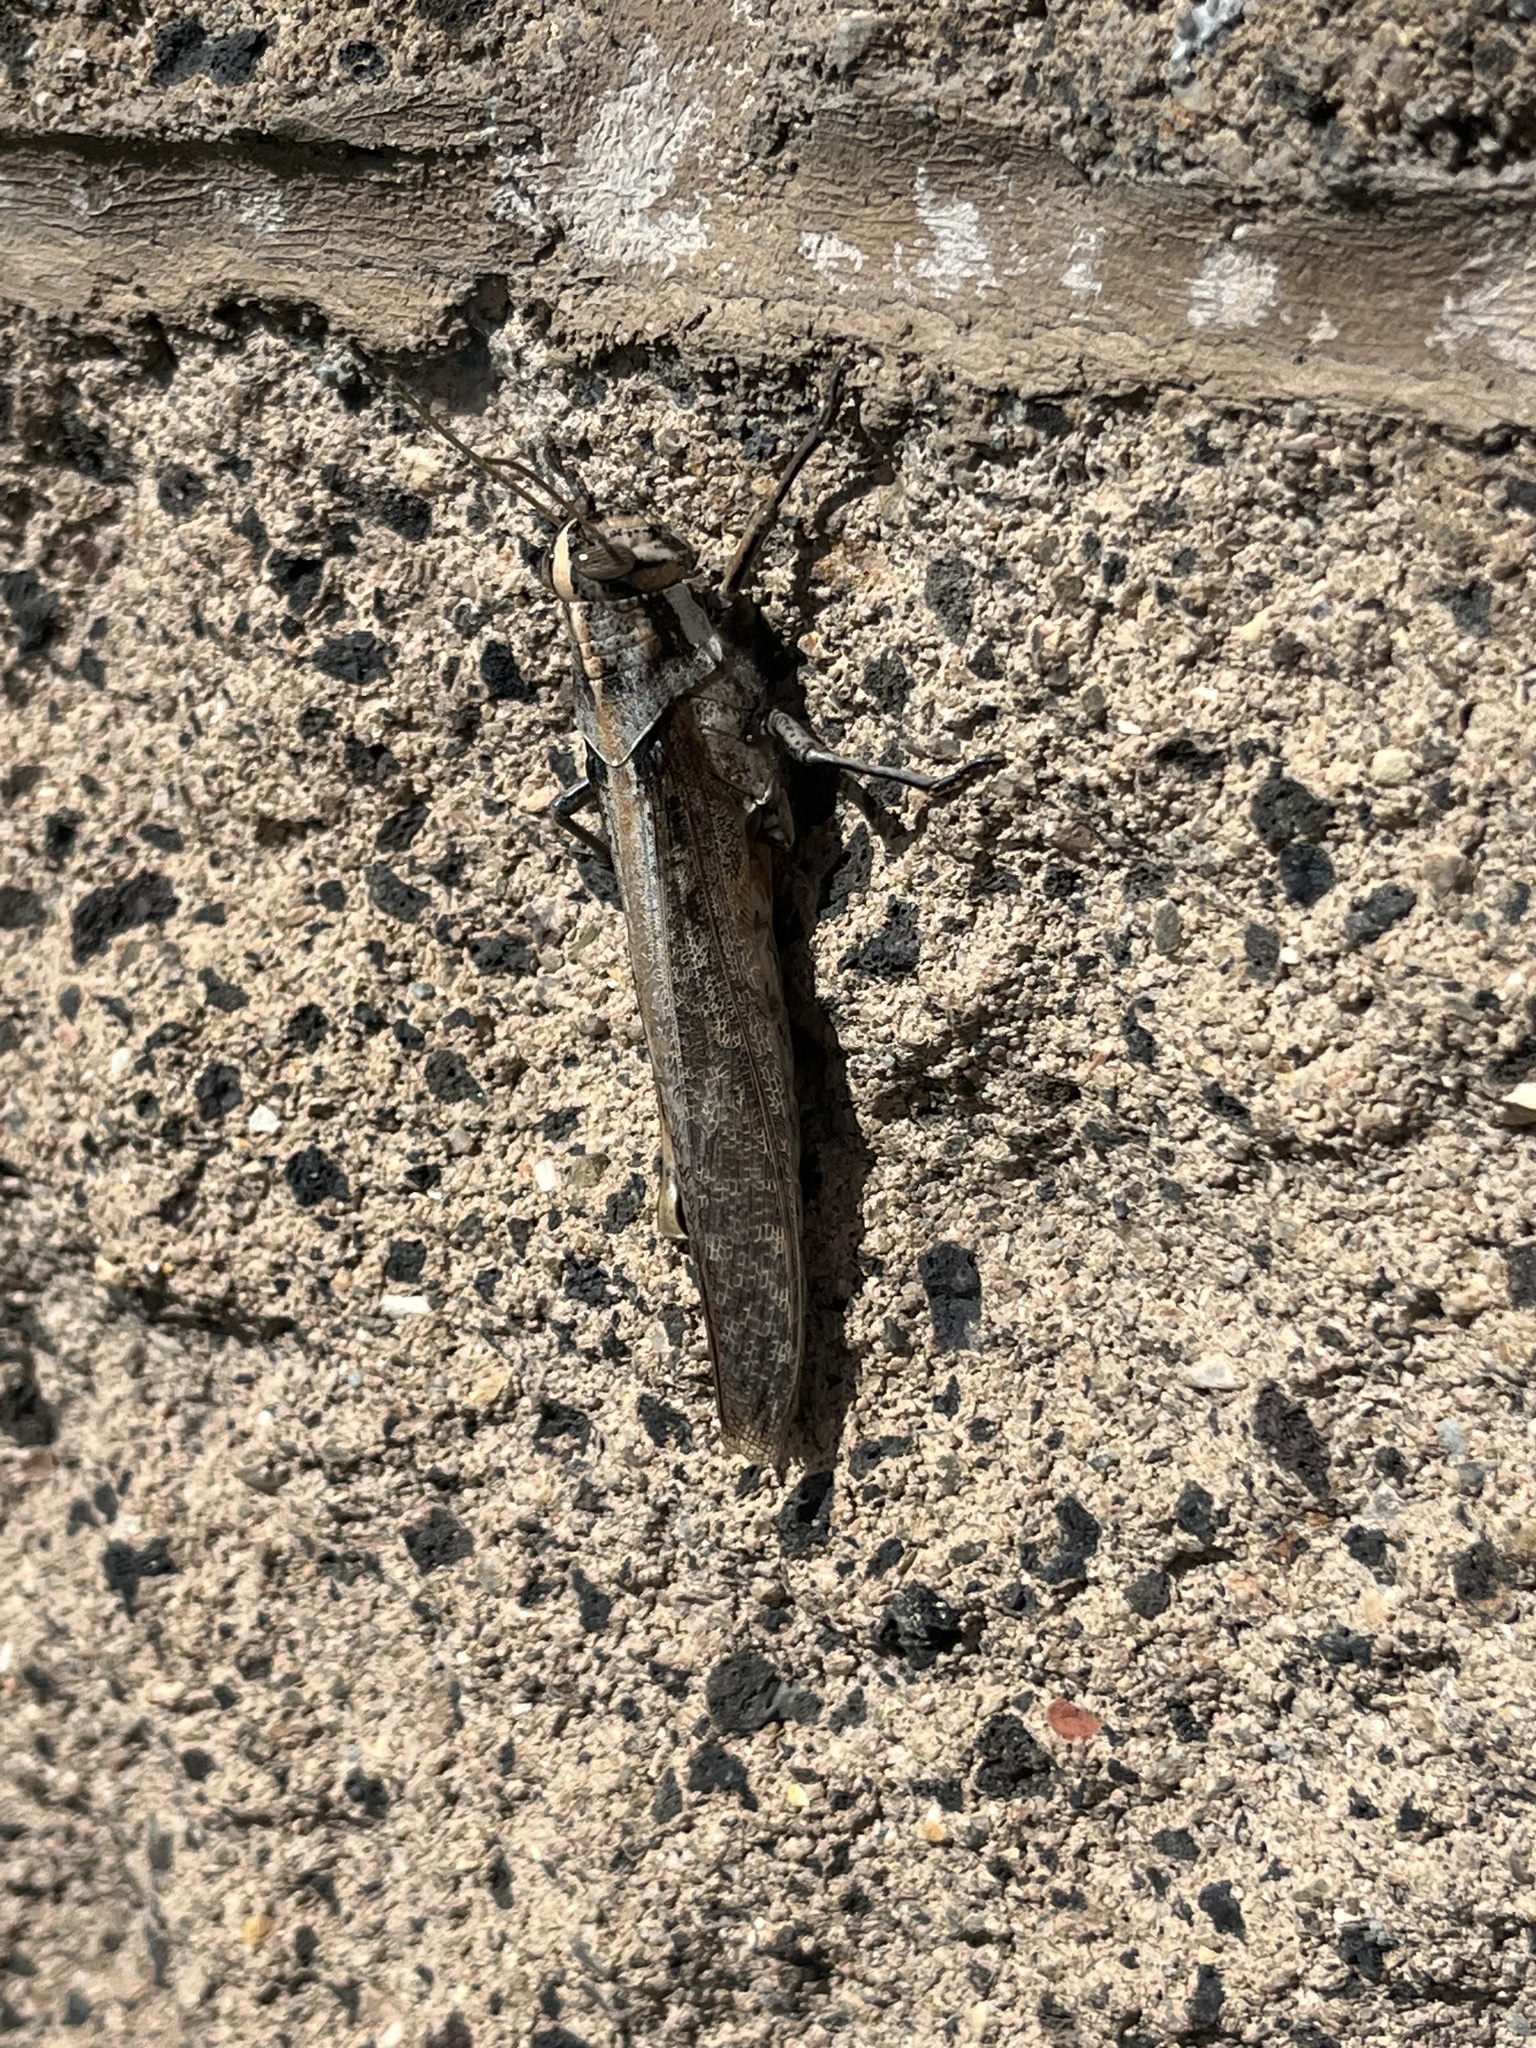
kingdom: Animalia
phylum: Arthropoda
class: Insecta
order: Orthoptera
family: Acrididae
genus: Schistocerca
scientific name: Schistocerca nitens
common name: Vagrant grasshopper
